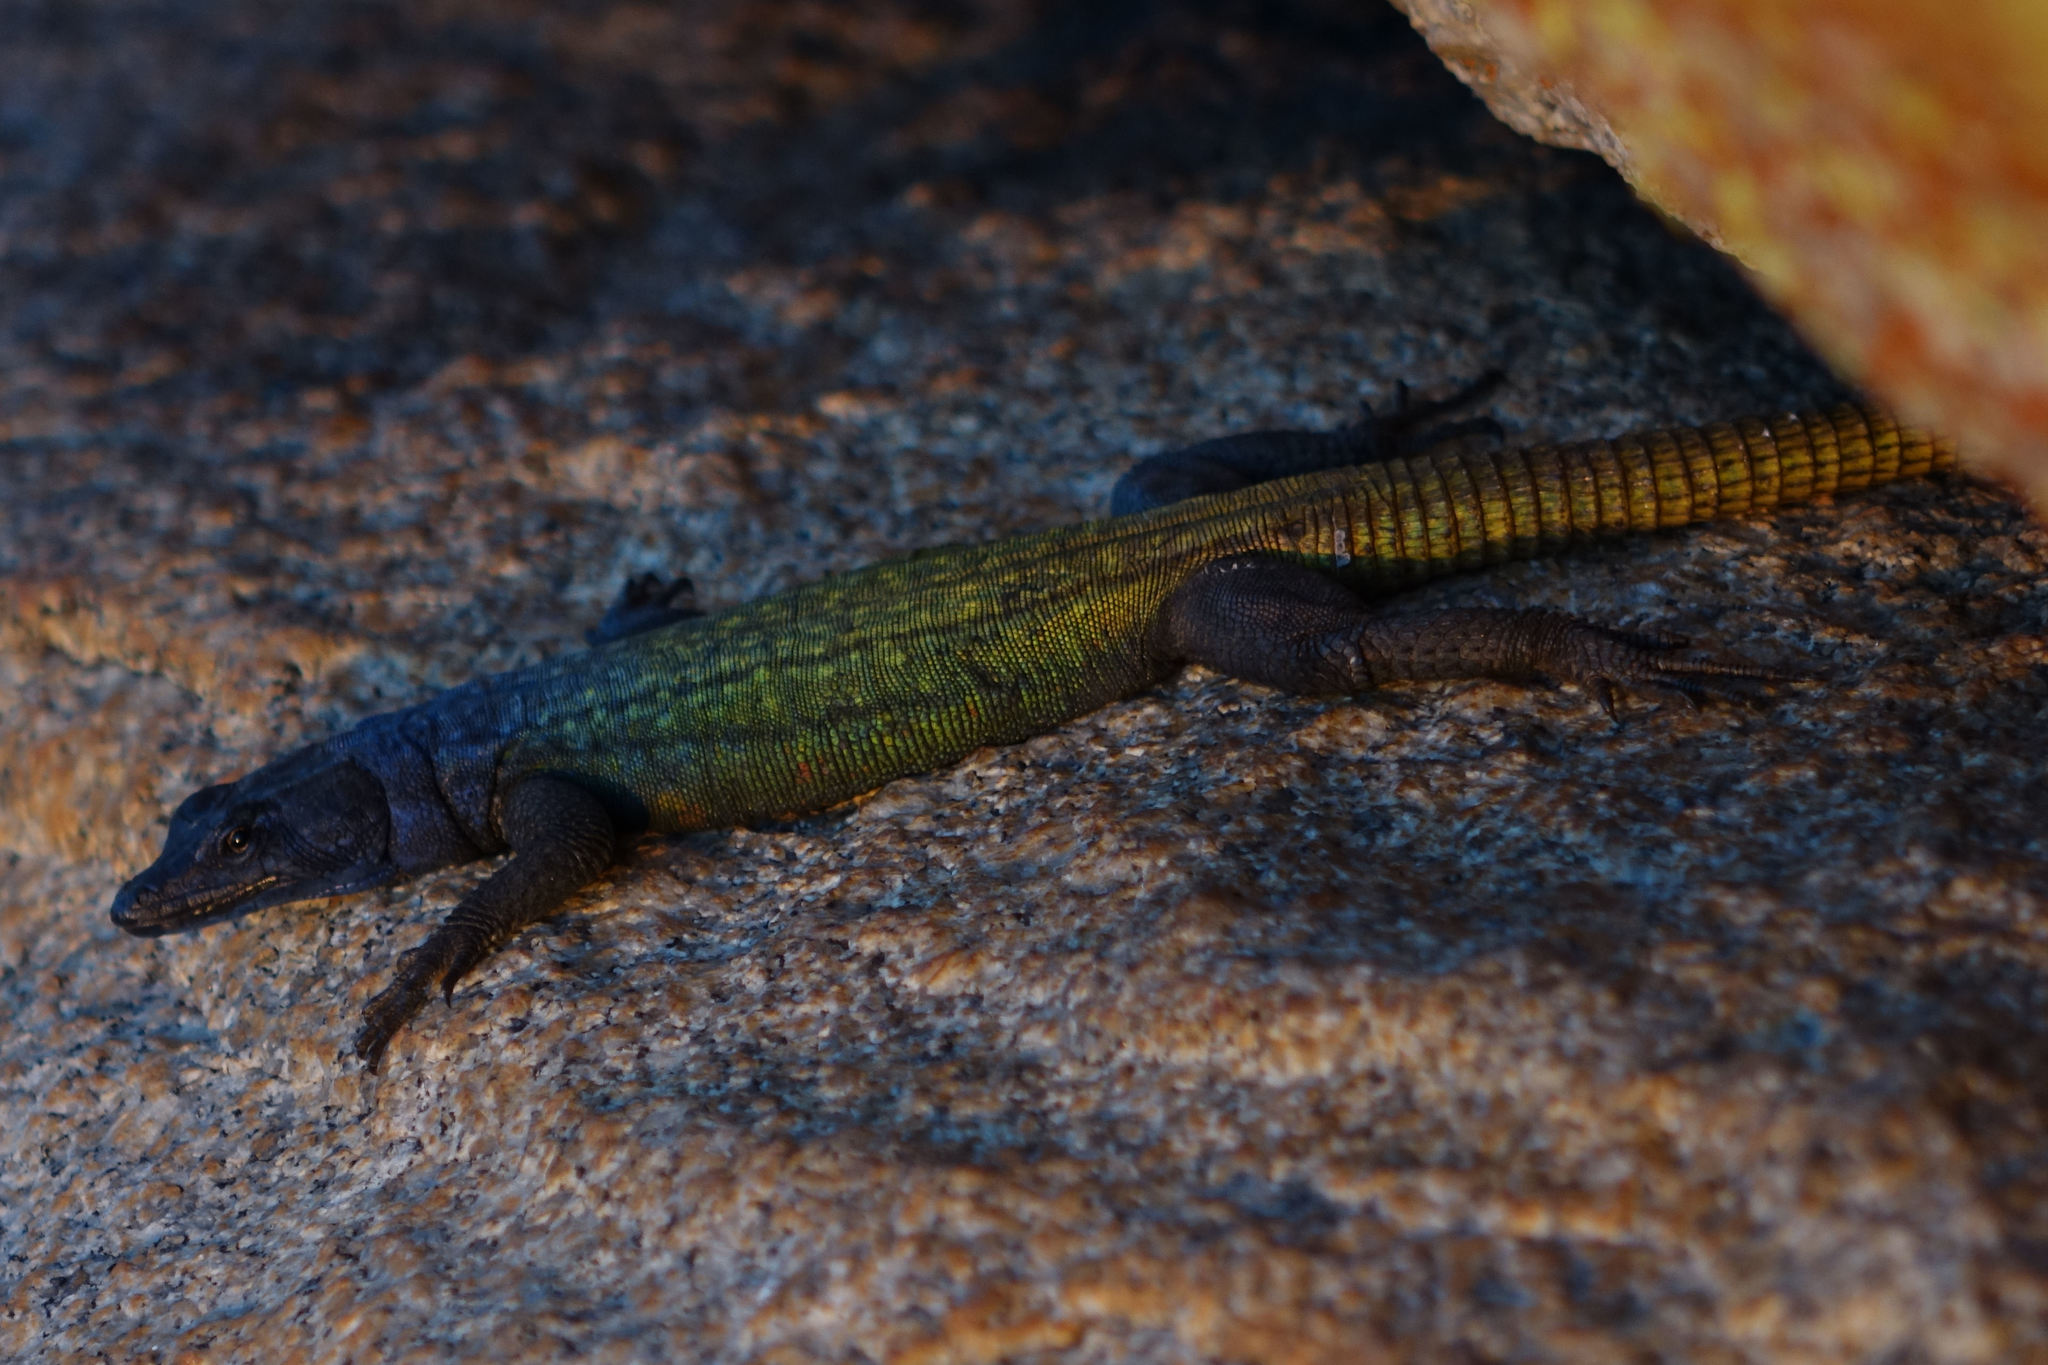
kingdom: Animalia
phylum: Chordata
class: Squamata
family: Cordylidae
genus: Platysaurus
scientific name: Platysaurus intermedius
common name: Common flat lizard
